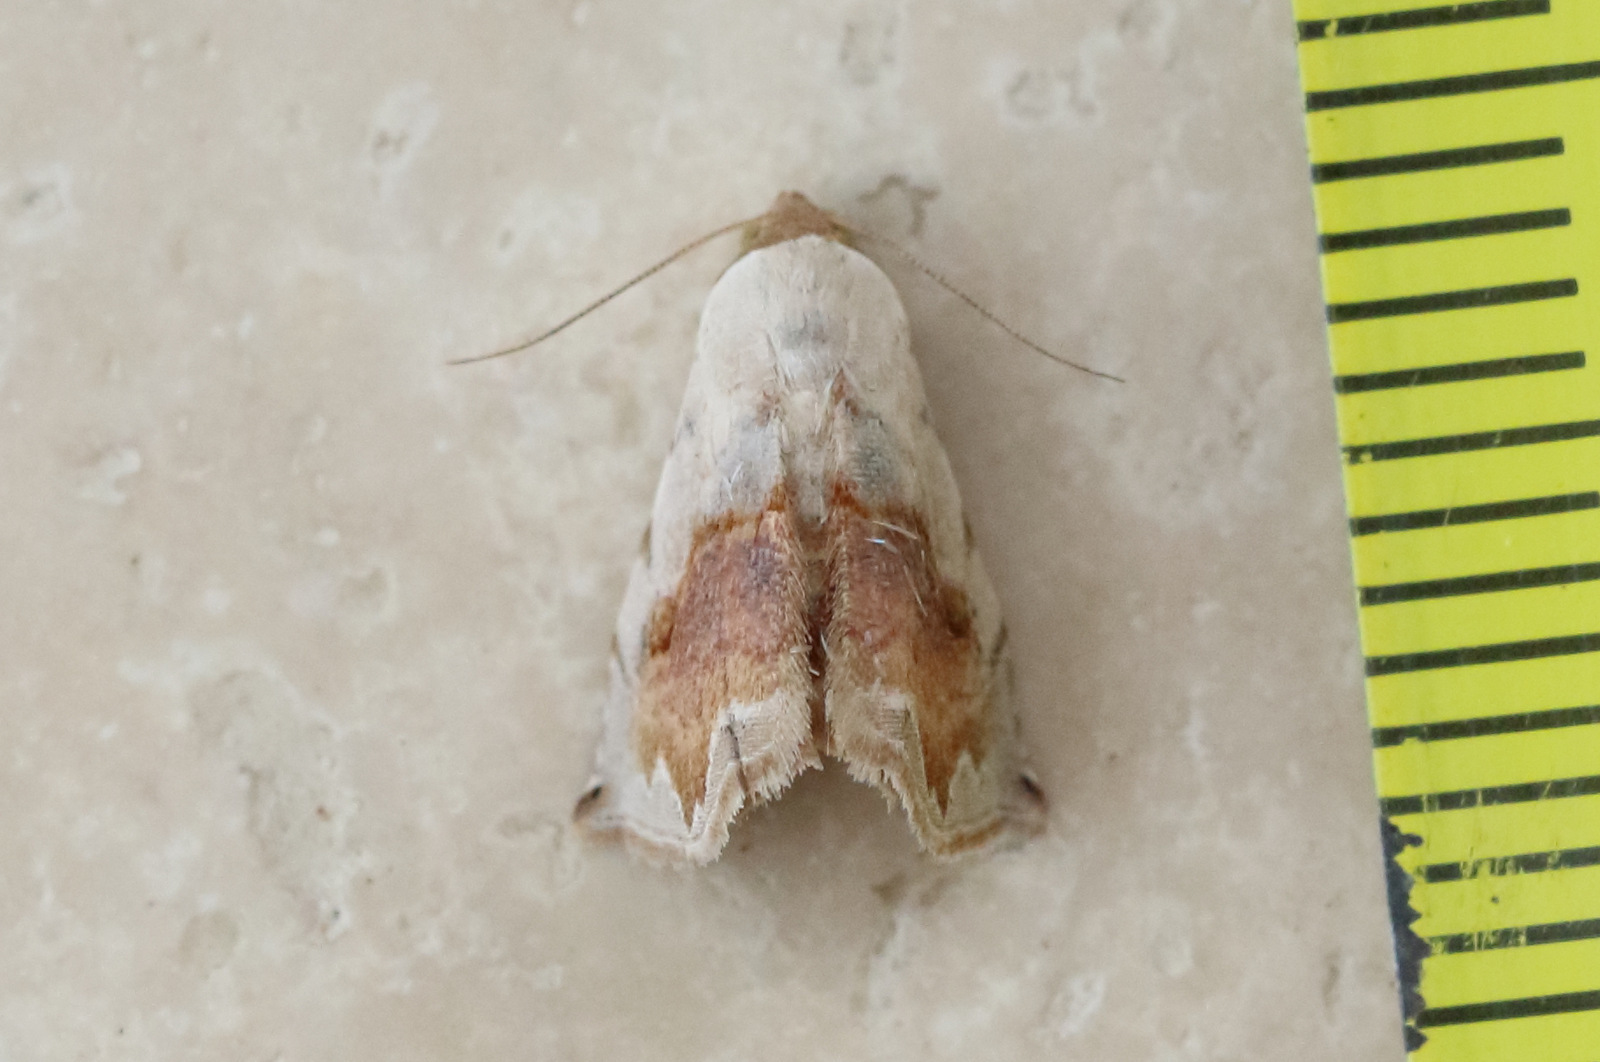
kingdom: Animalia
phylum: Arthropoda
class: Insecta
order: Lepidoptera
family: Noctuidae
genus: Eublemma
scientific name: Eublemma
